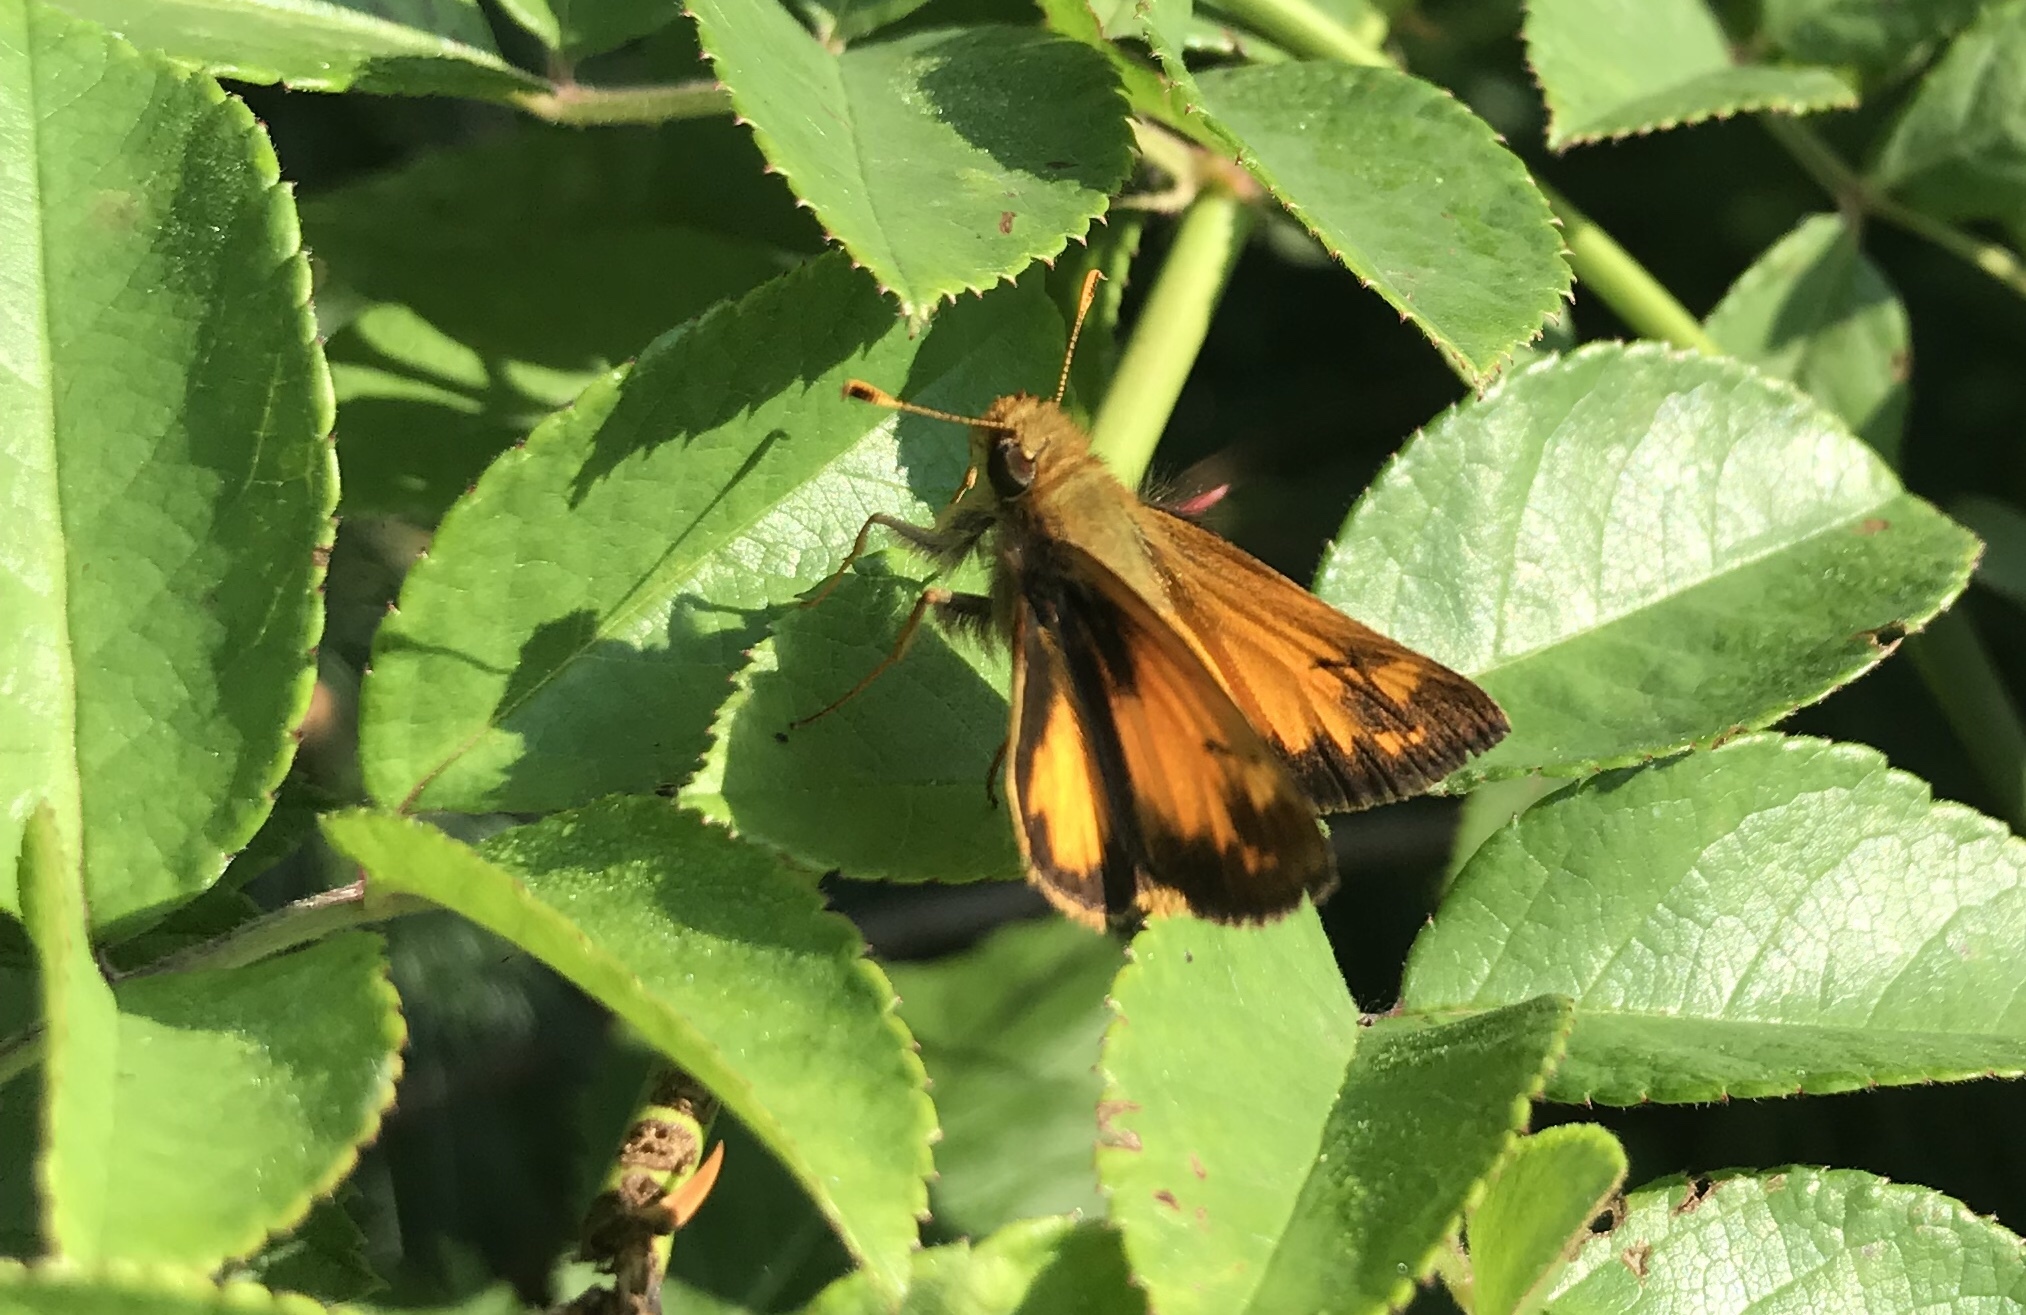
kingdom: Animalia
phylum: Arthropoda
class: Insecta
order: Lepidoptera
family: Hesperiidae
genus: Lon
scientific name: Lon zabulon
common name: Zabulon skipper
